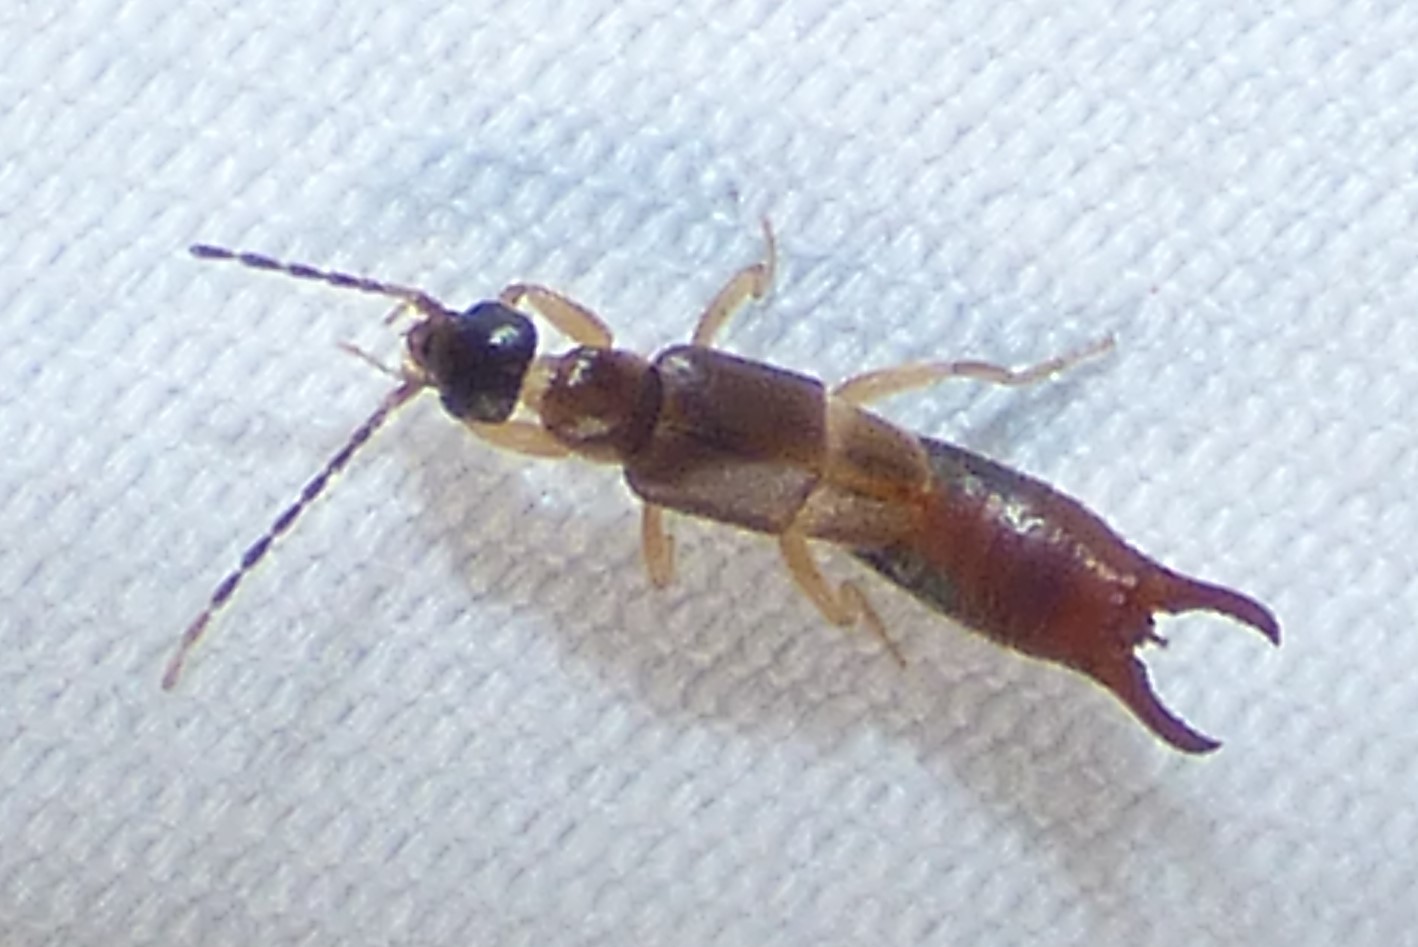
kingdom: Animalia
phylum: Arthropoda
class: Insecta
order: Dermaptera
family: Spongiphoridae
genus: Labia
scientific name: Labia minor
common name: Lesser earwig
